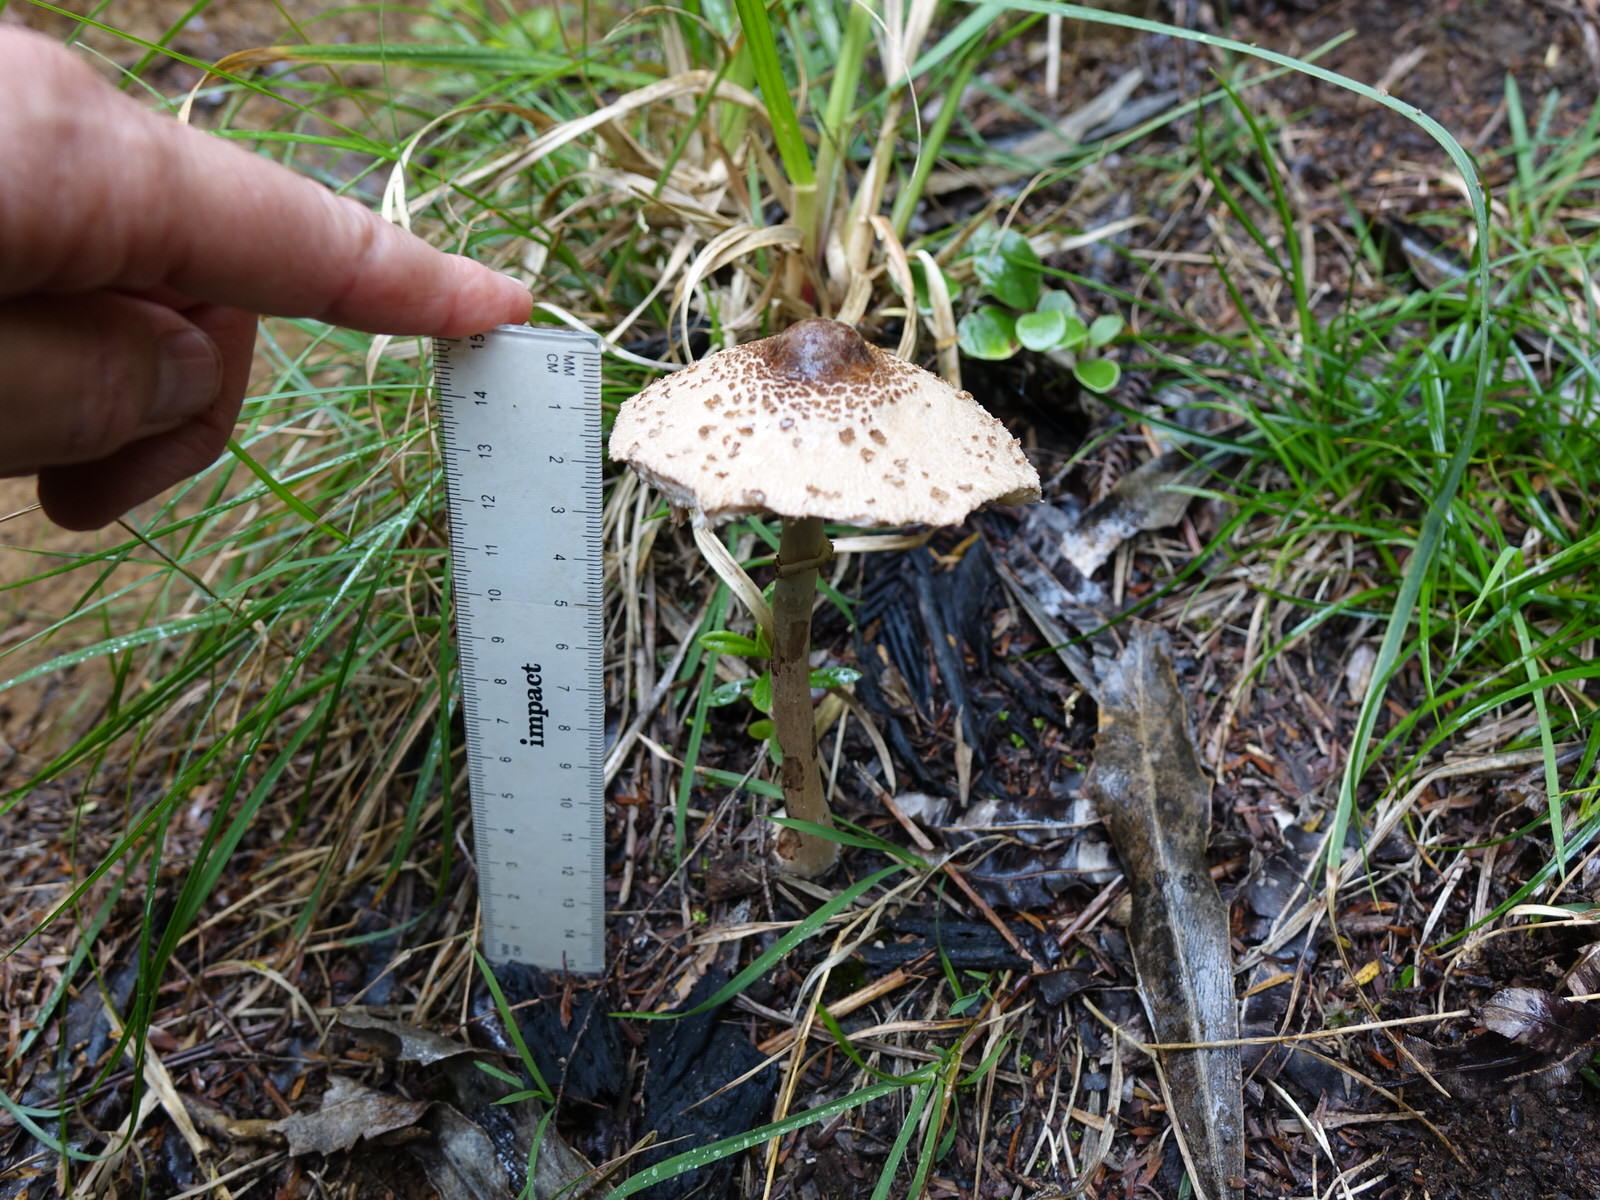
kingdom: Fungi
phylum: Basidiomycota
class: Agaricomycetes
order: Agaricales
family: Agaricaceae
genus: Macrolepiota
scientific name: Macrolepiota clelandii
